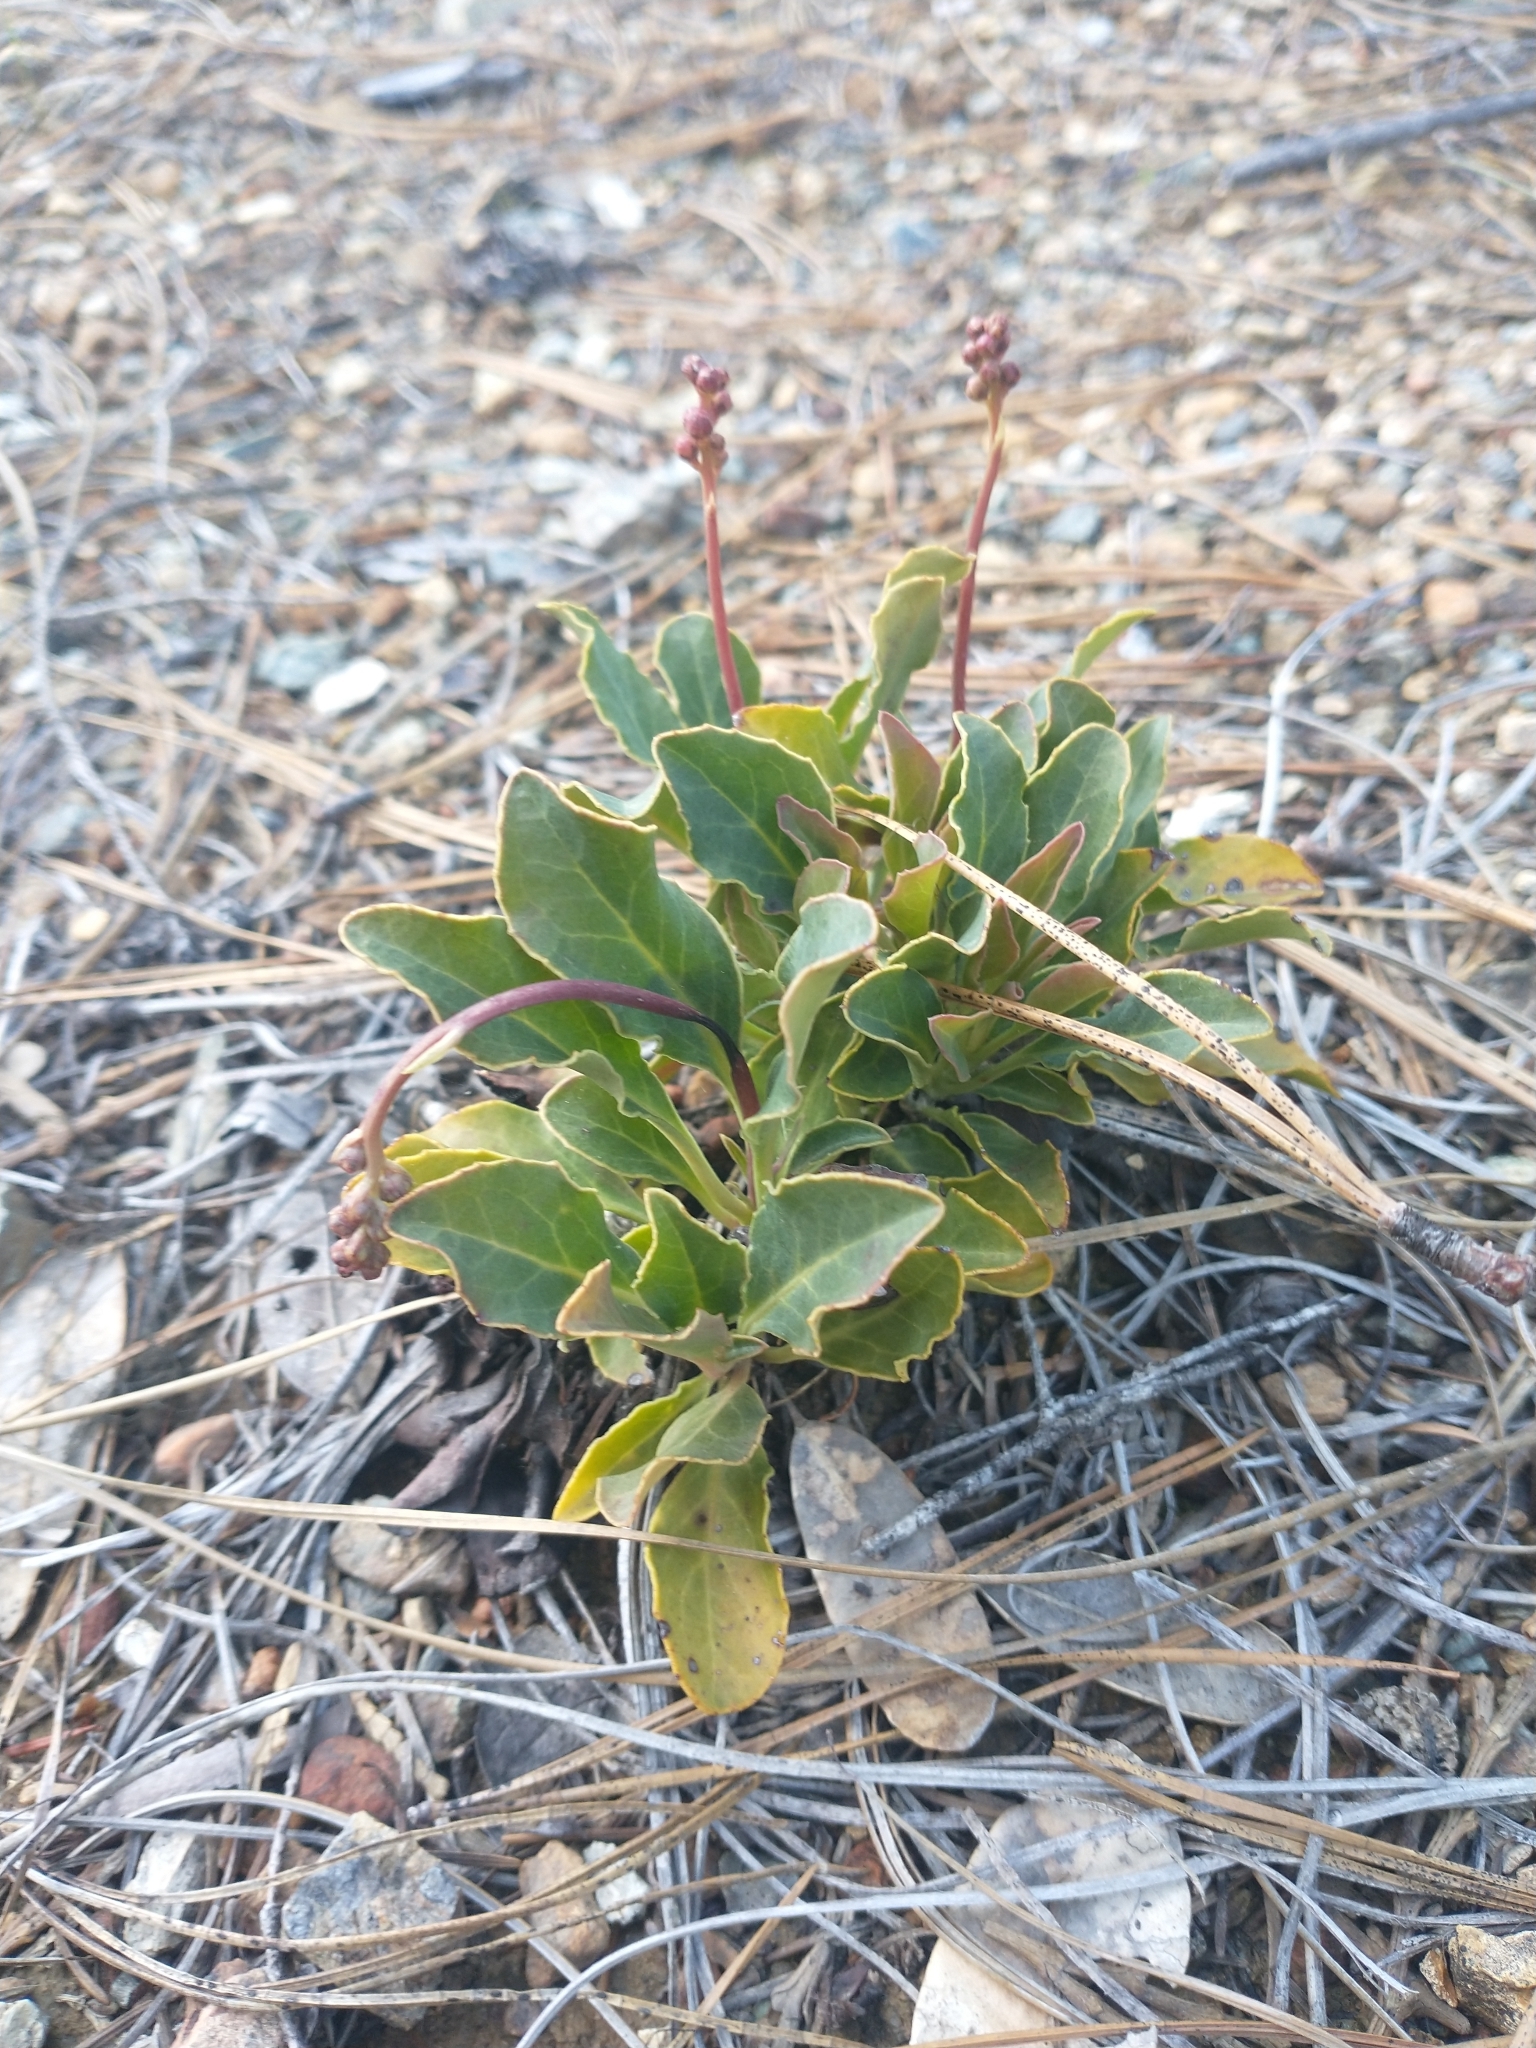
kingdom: Plantae
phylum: Tracheophyta
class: Magnoliopsida
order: Ericales
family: Ericaceae
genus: Pyrola
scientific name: Pyrola dentata
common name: Tooth-leaved wintergreen
